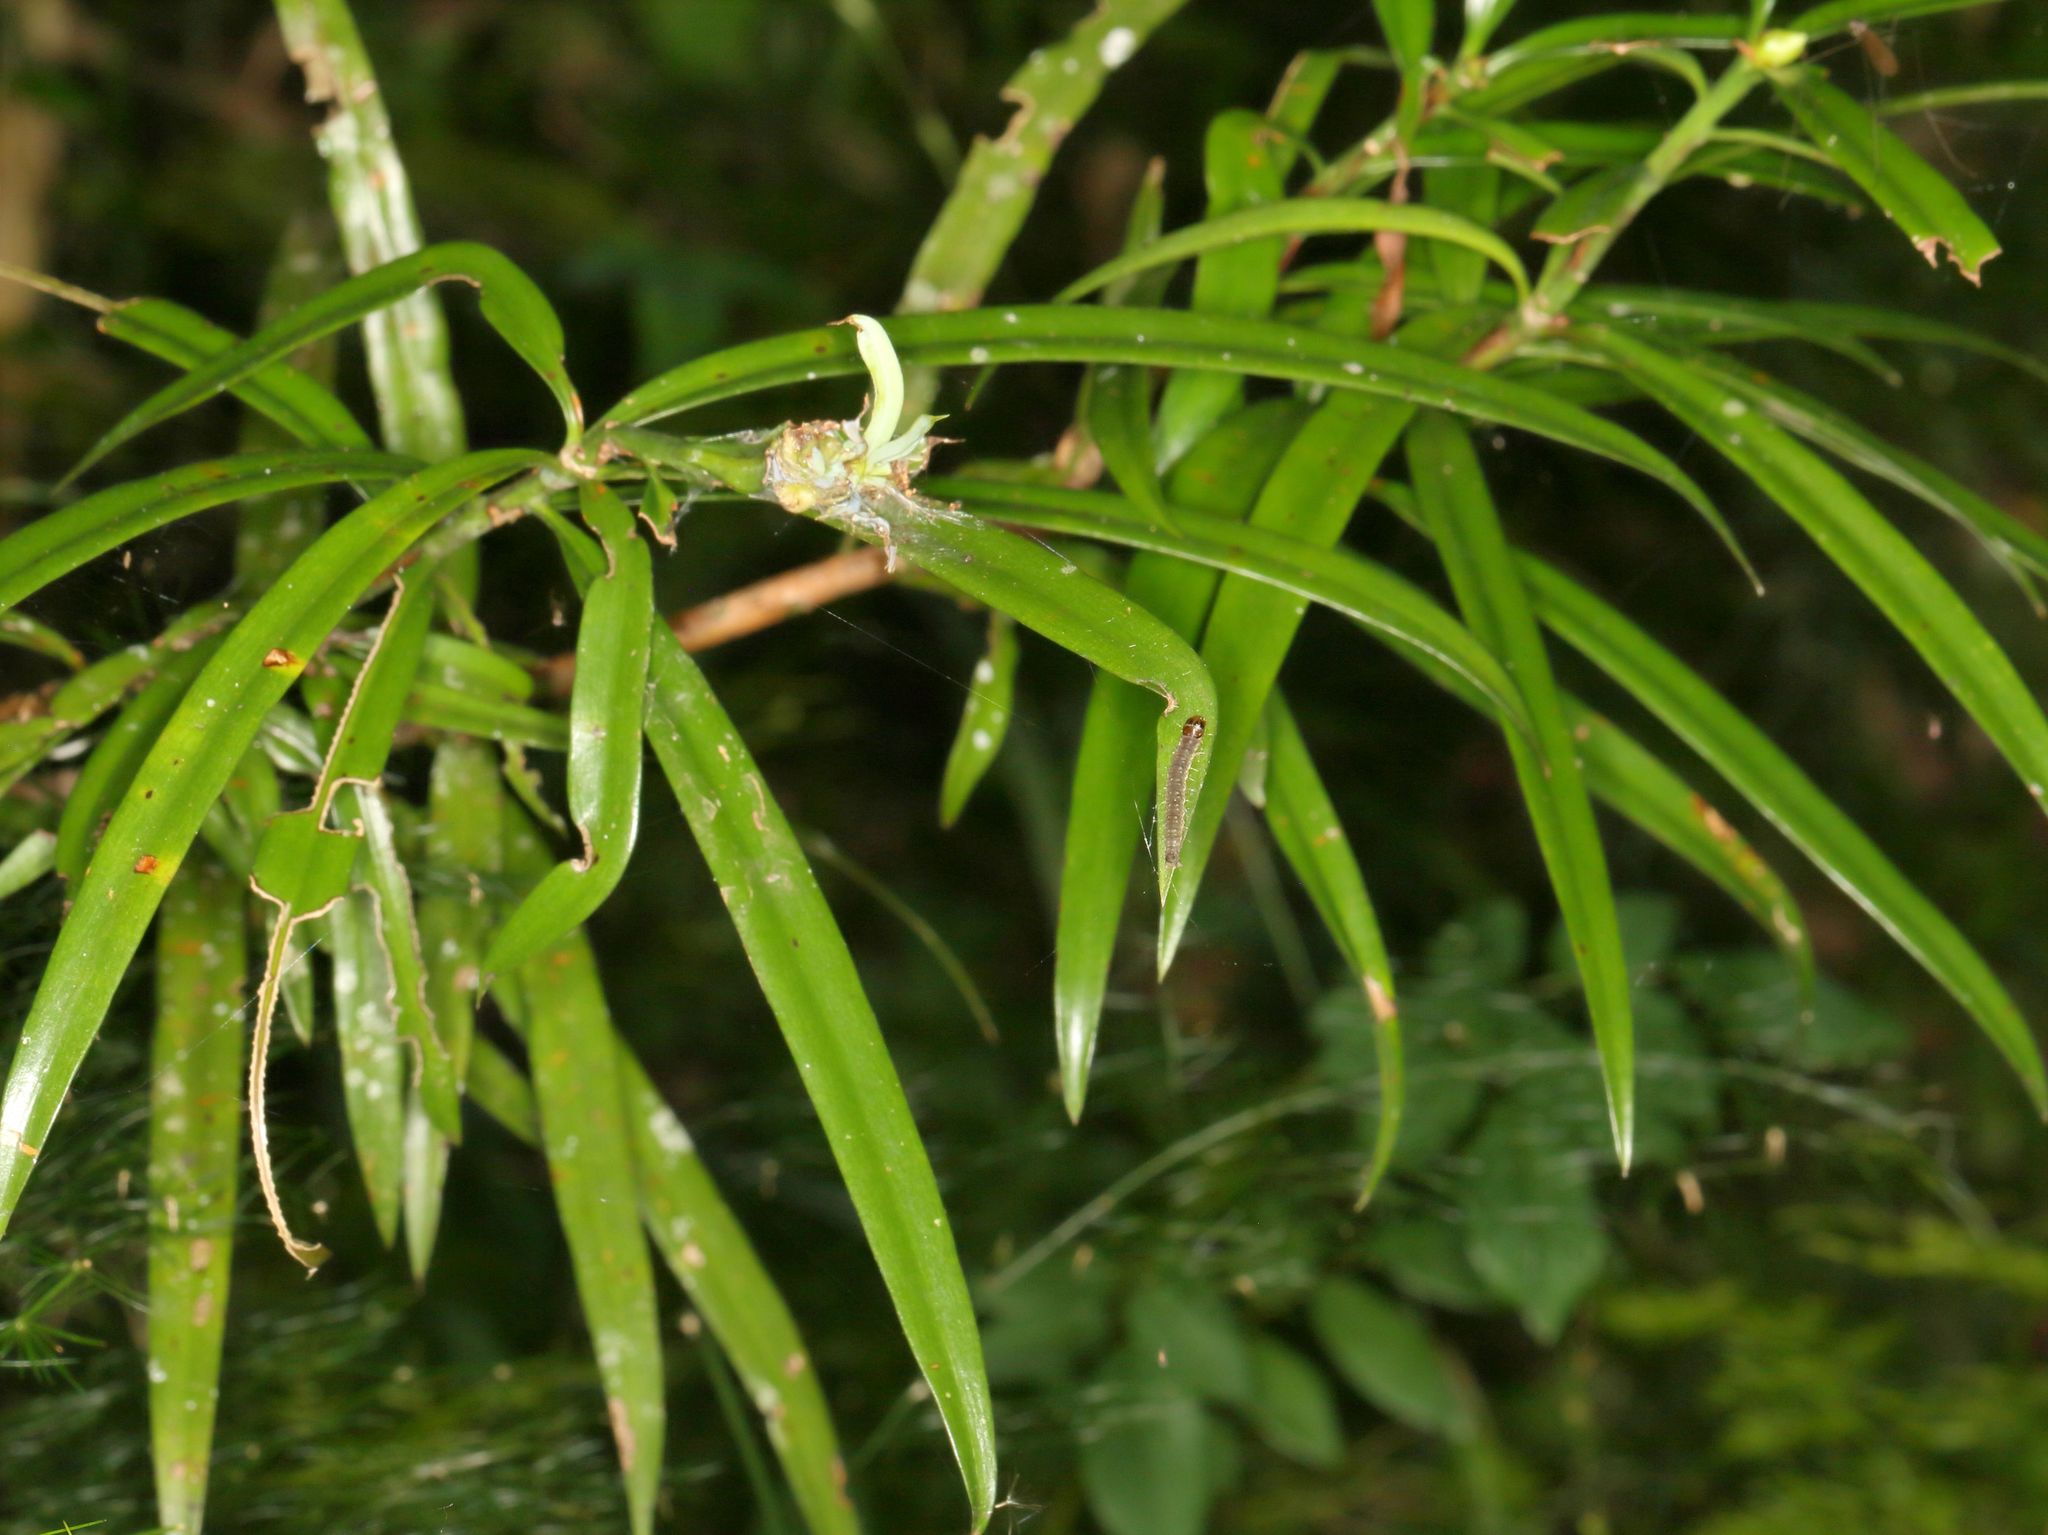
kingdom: Plantae
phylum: Tracheophyta
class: Pinopsida
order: Pinales
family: Podocarpaceae
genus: Podocarpus
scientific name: Podocarpus henkelii
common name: Henkel's yellowwood
